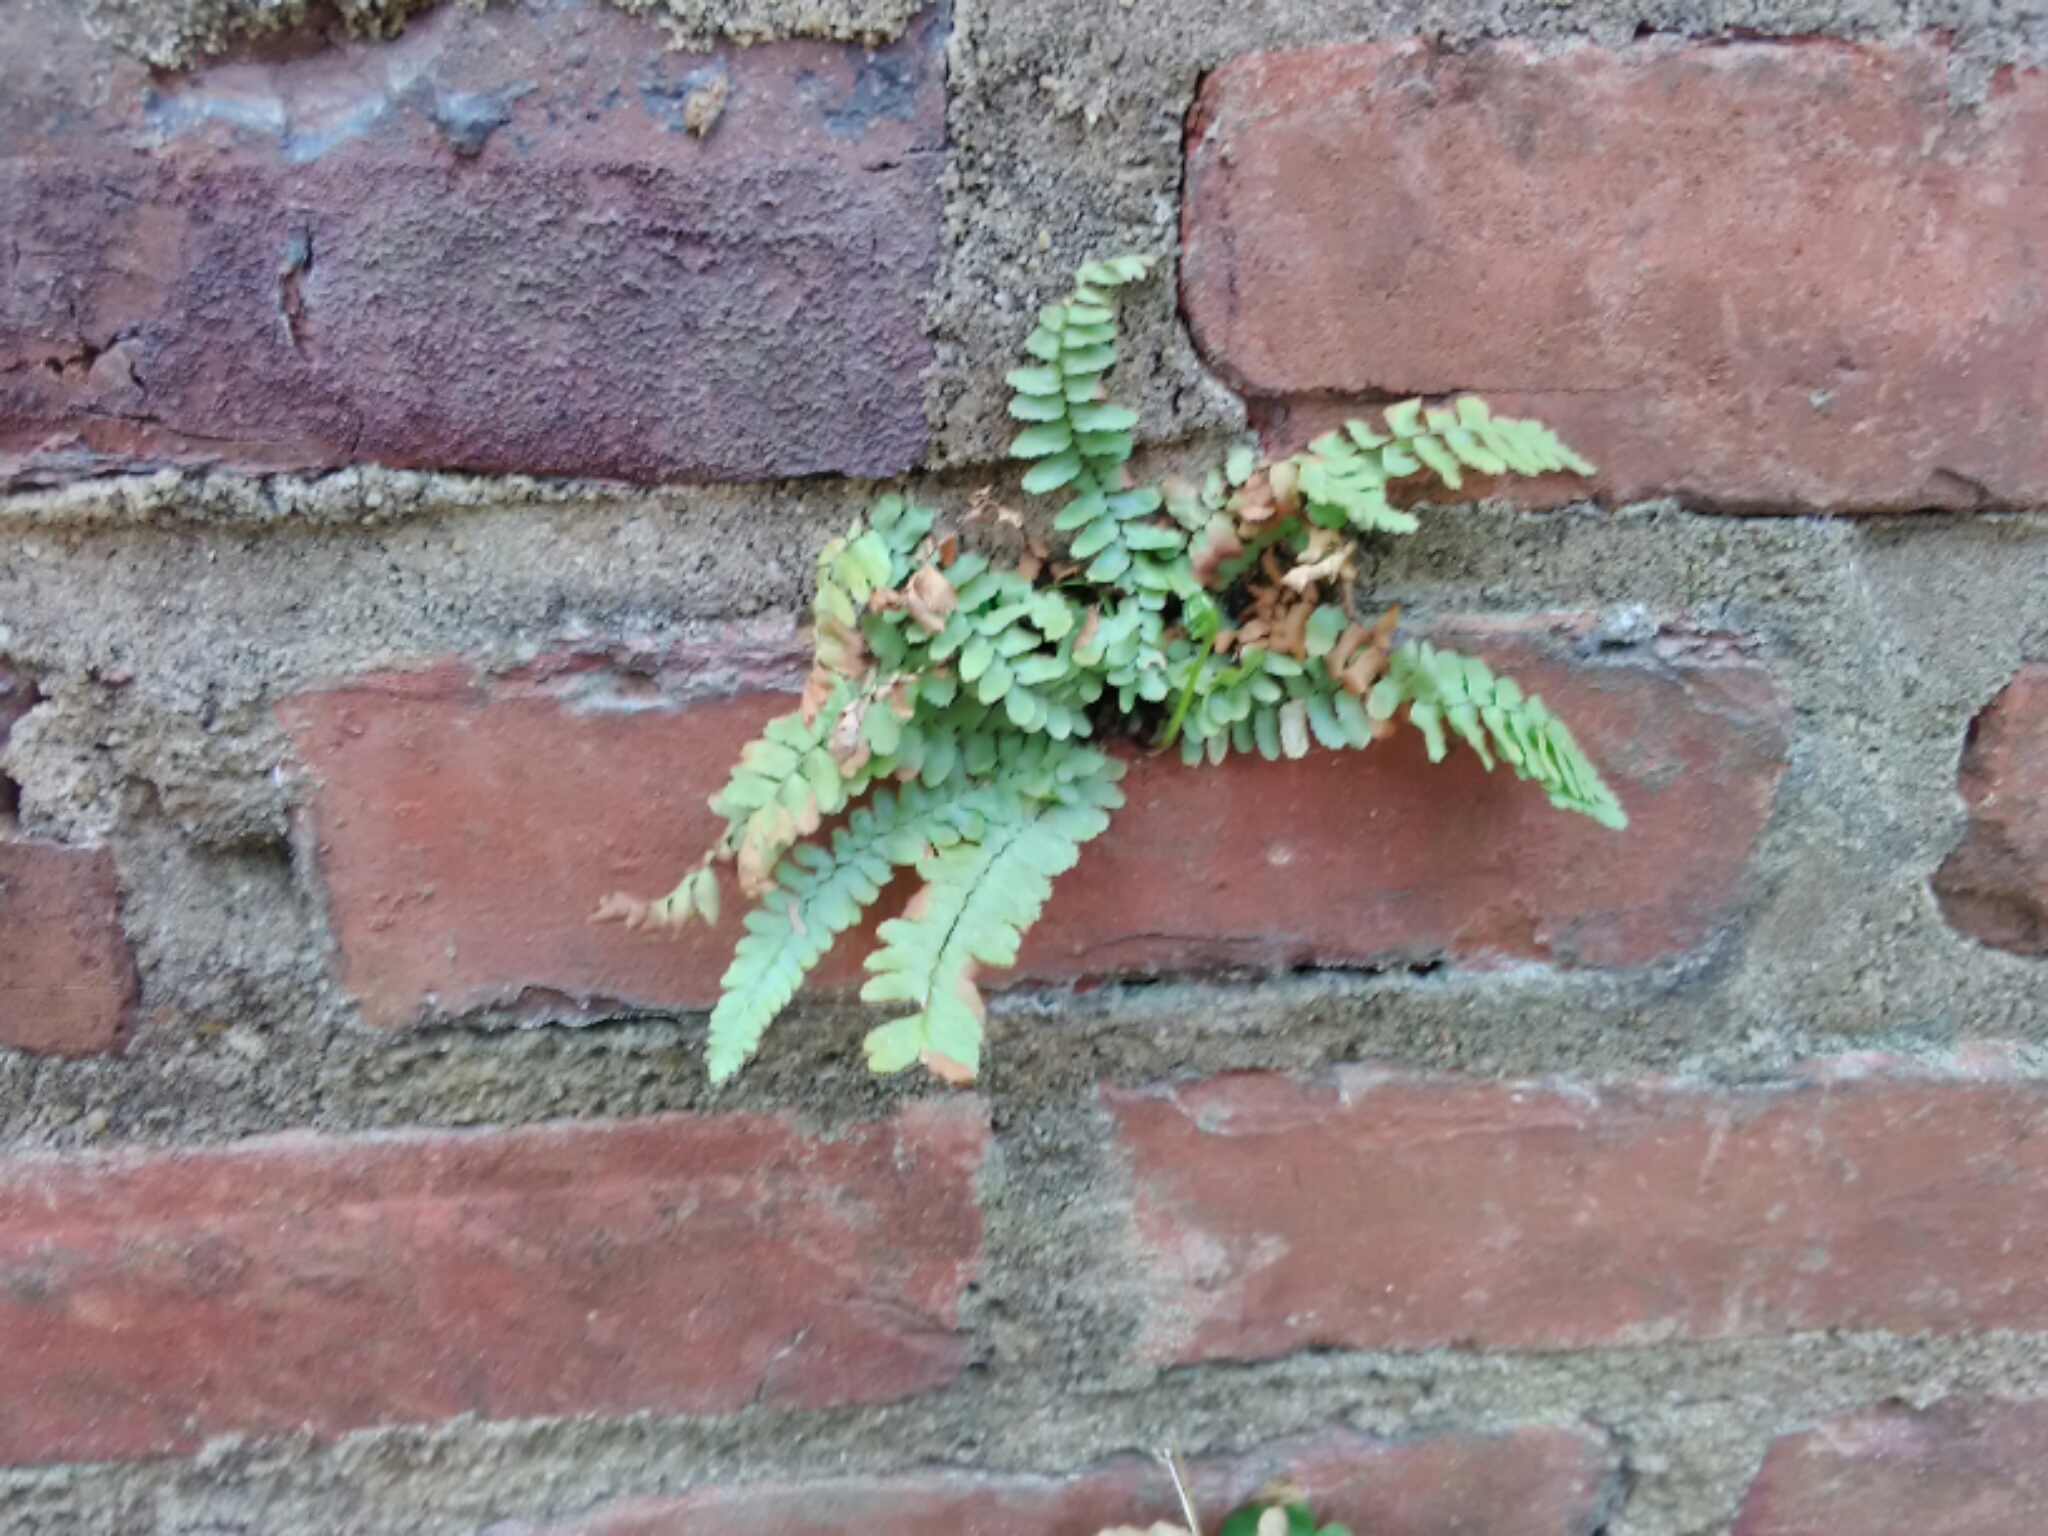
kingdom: Plantae
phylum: Tracheophyta
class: Polypodiopsida
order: Polypodiales
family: Aspleniaceae
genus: Asplenium
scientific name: Asplenium platyneuron
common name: Ebony spleenwort
